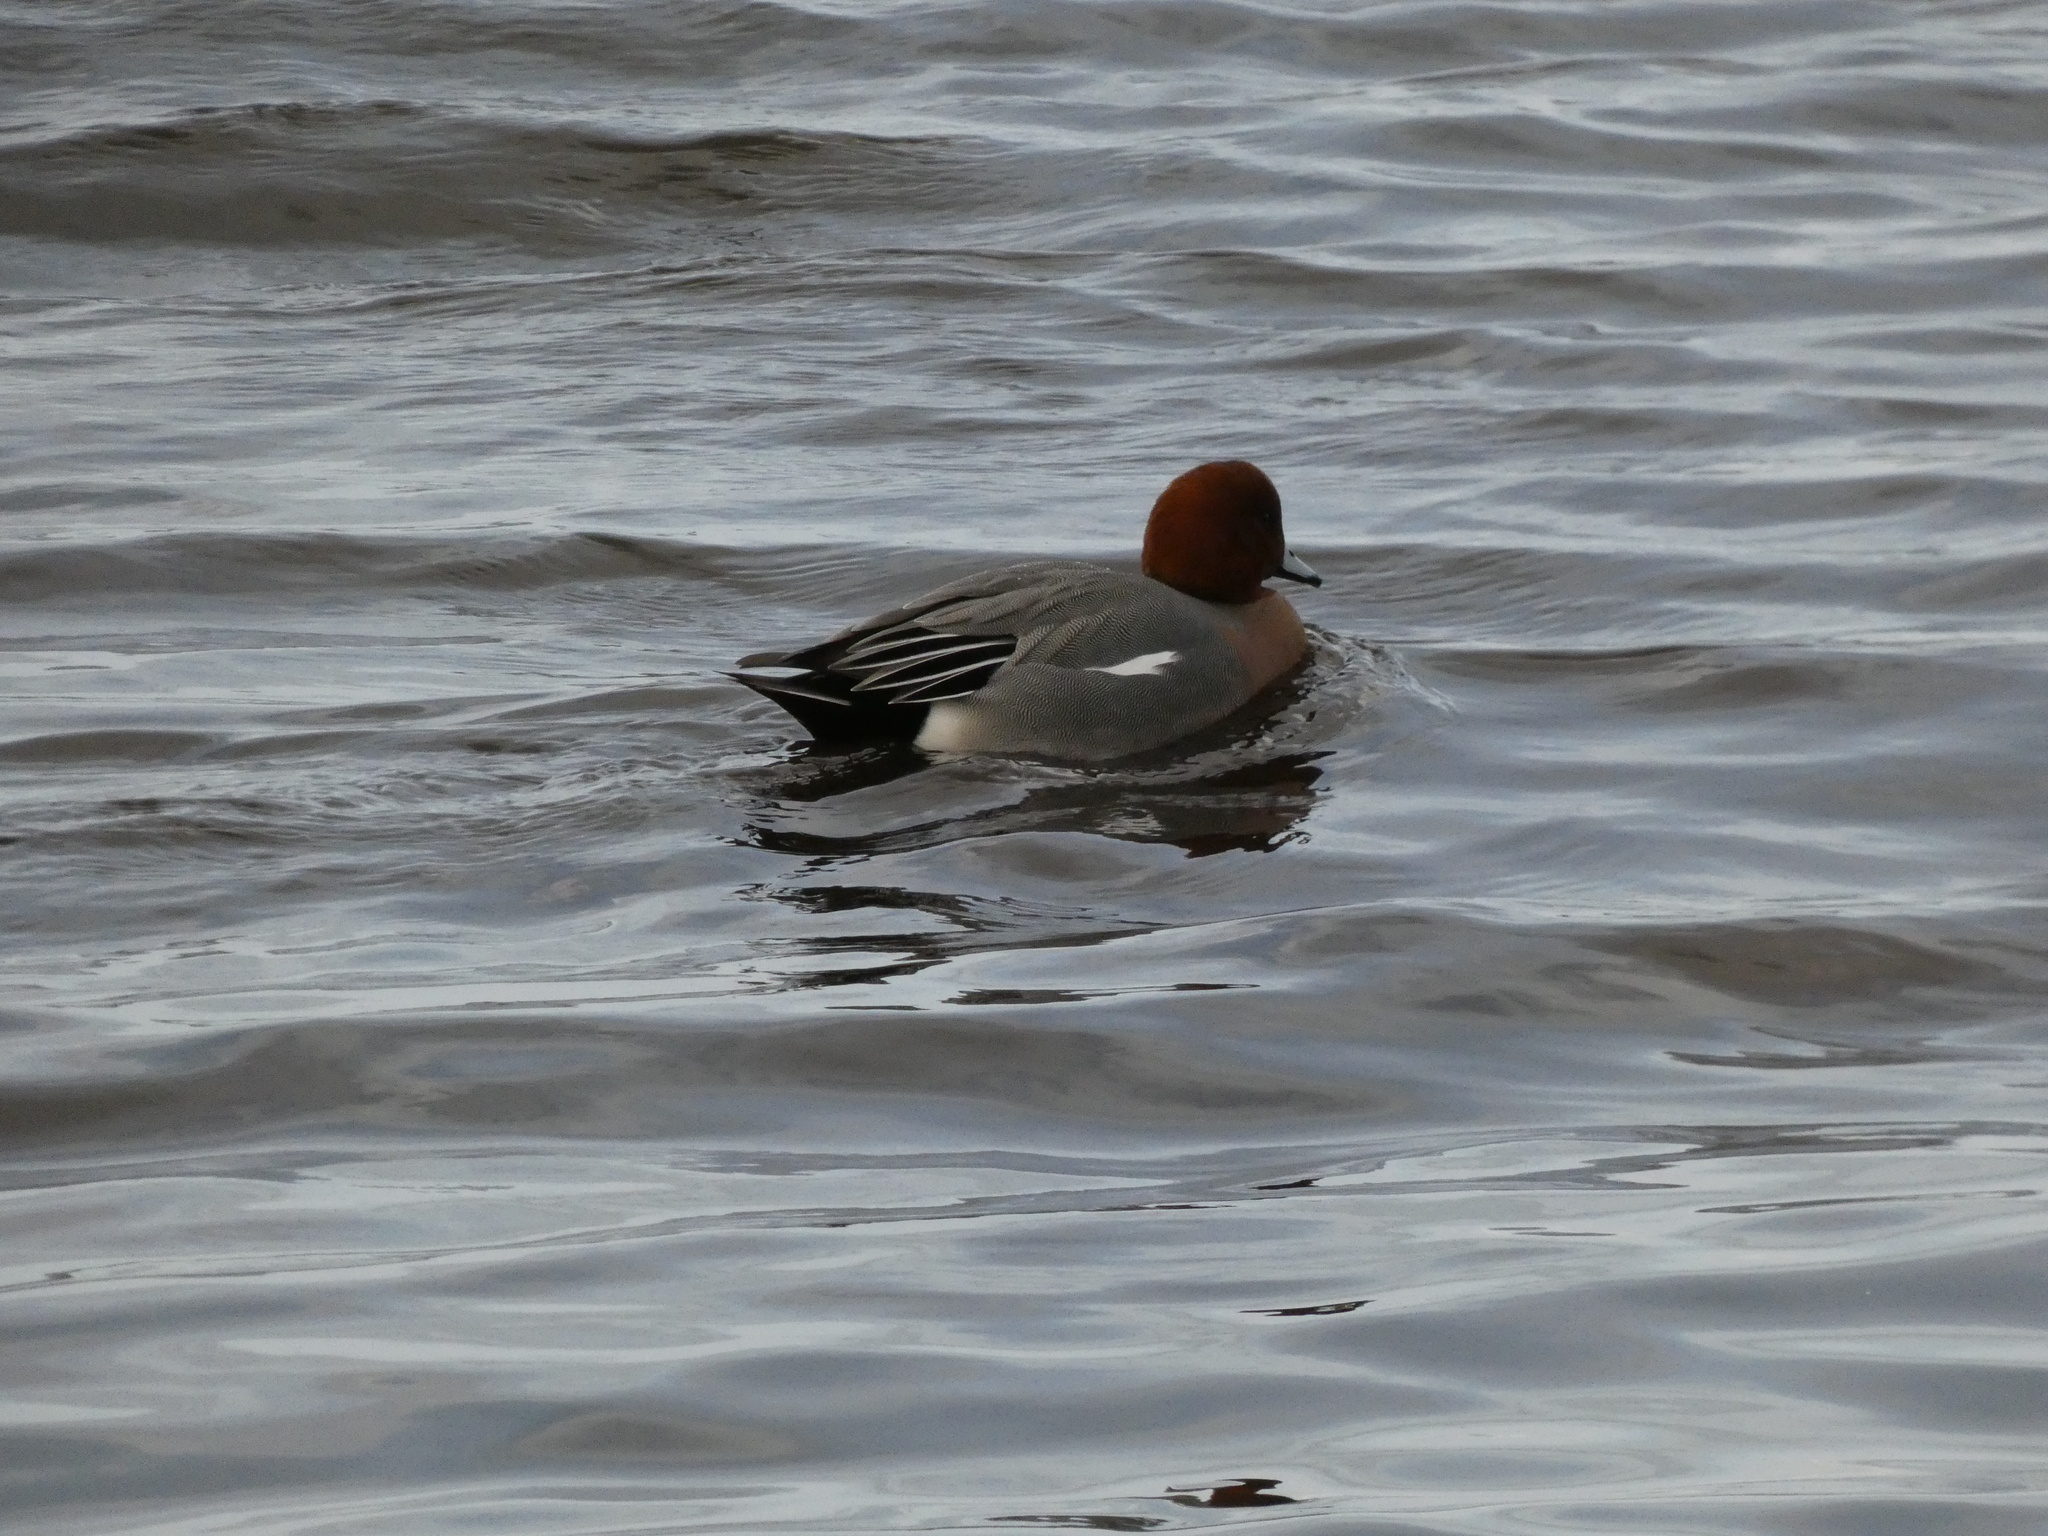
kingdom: Animalia
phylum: Chordata
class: Aves
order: Anseriformes
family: Anatidae
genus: Mareca
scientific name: Mareca penelope
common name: Eurasian wigeon
